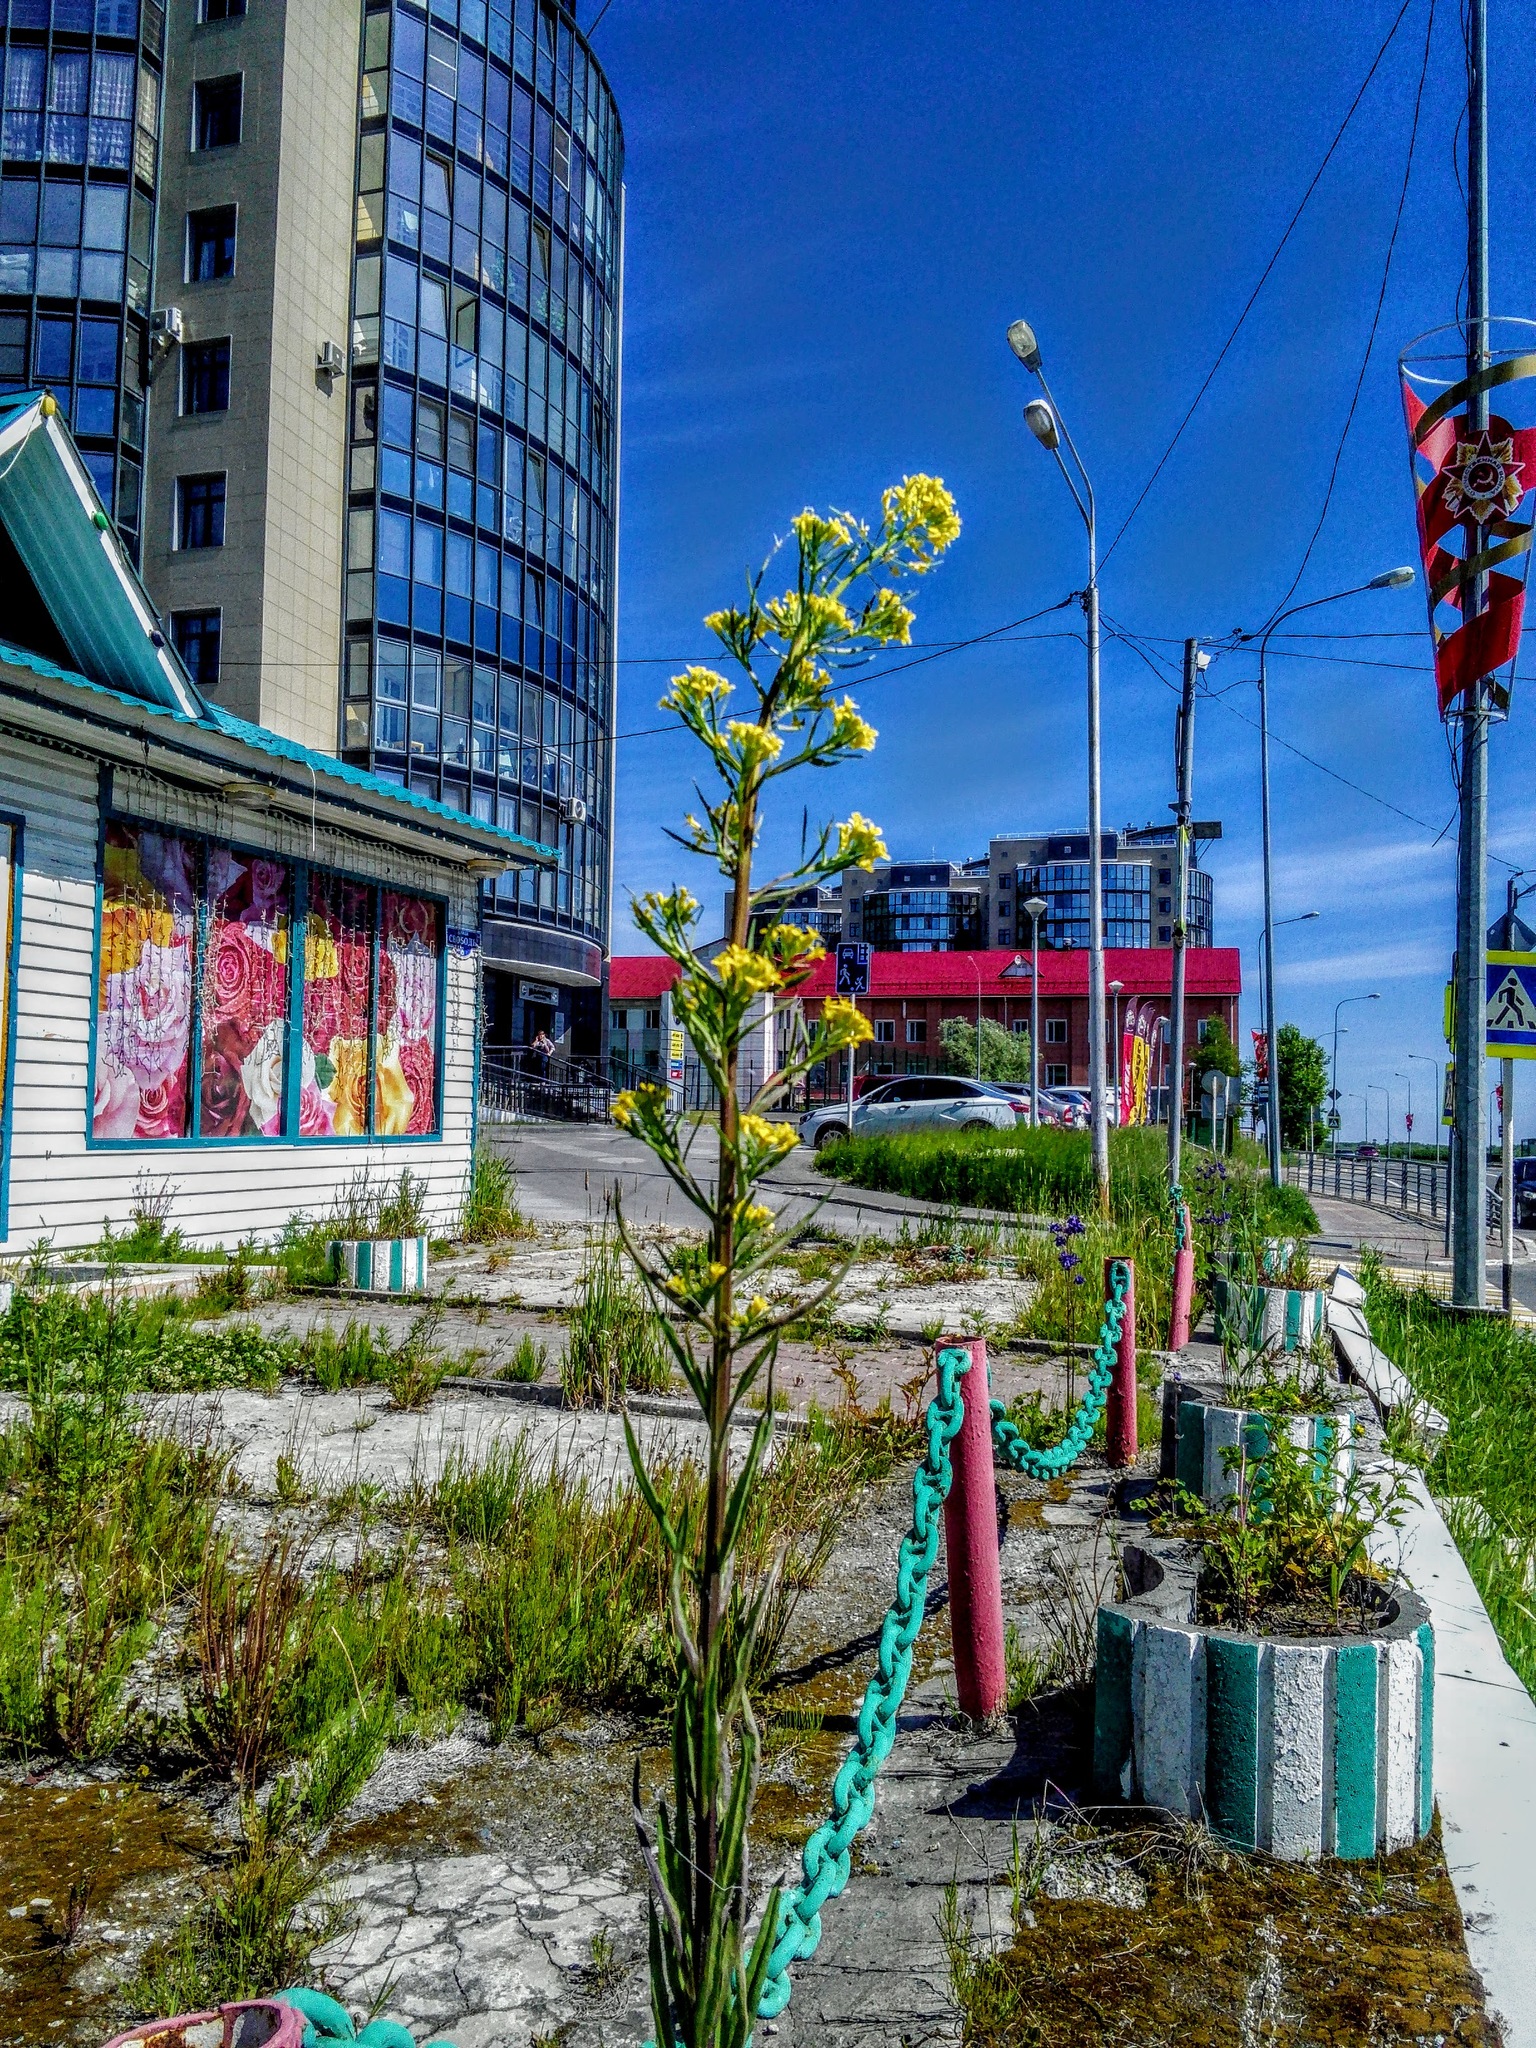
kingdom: Plantae
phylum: Tracheophyta
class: Magnoliopsida
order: Brassicales
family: Brassicaceae
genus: Erysimum
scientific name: Erysimum cheiranthoides
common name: Treacle mustard
